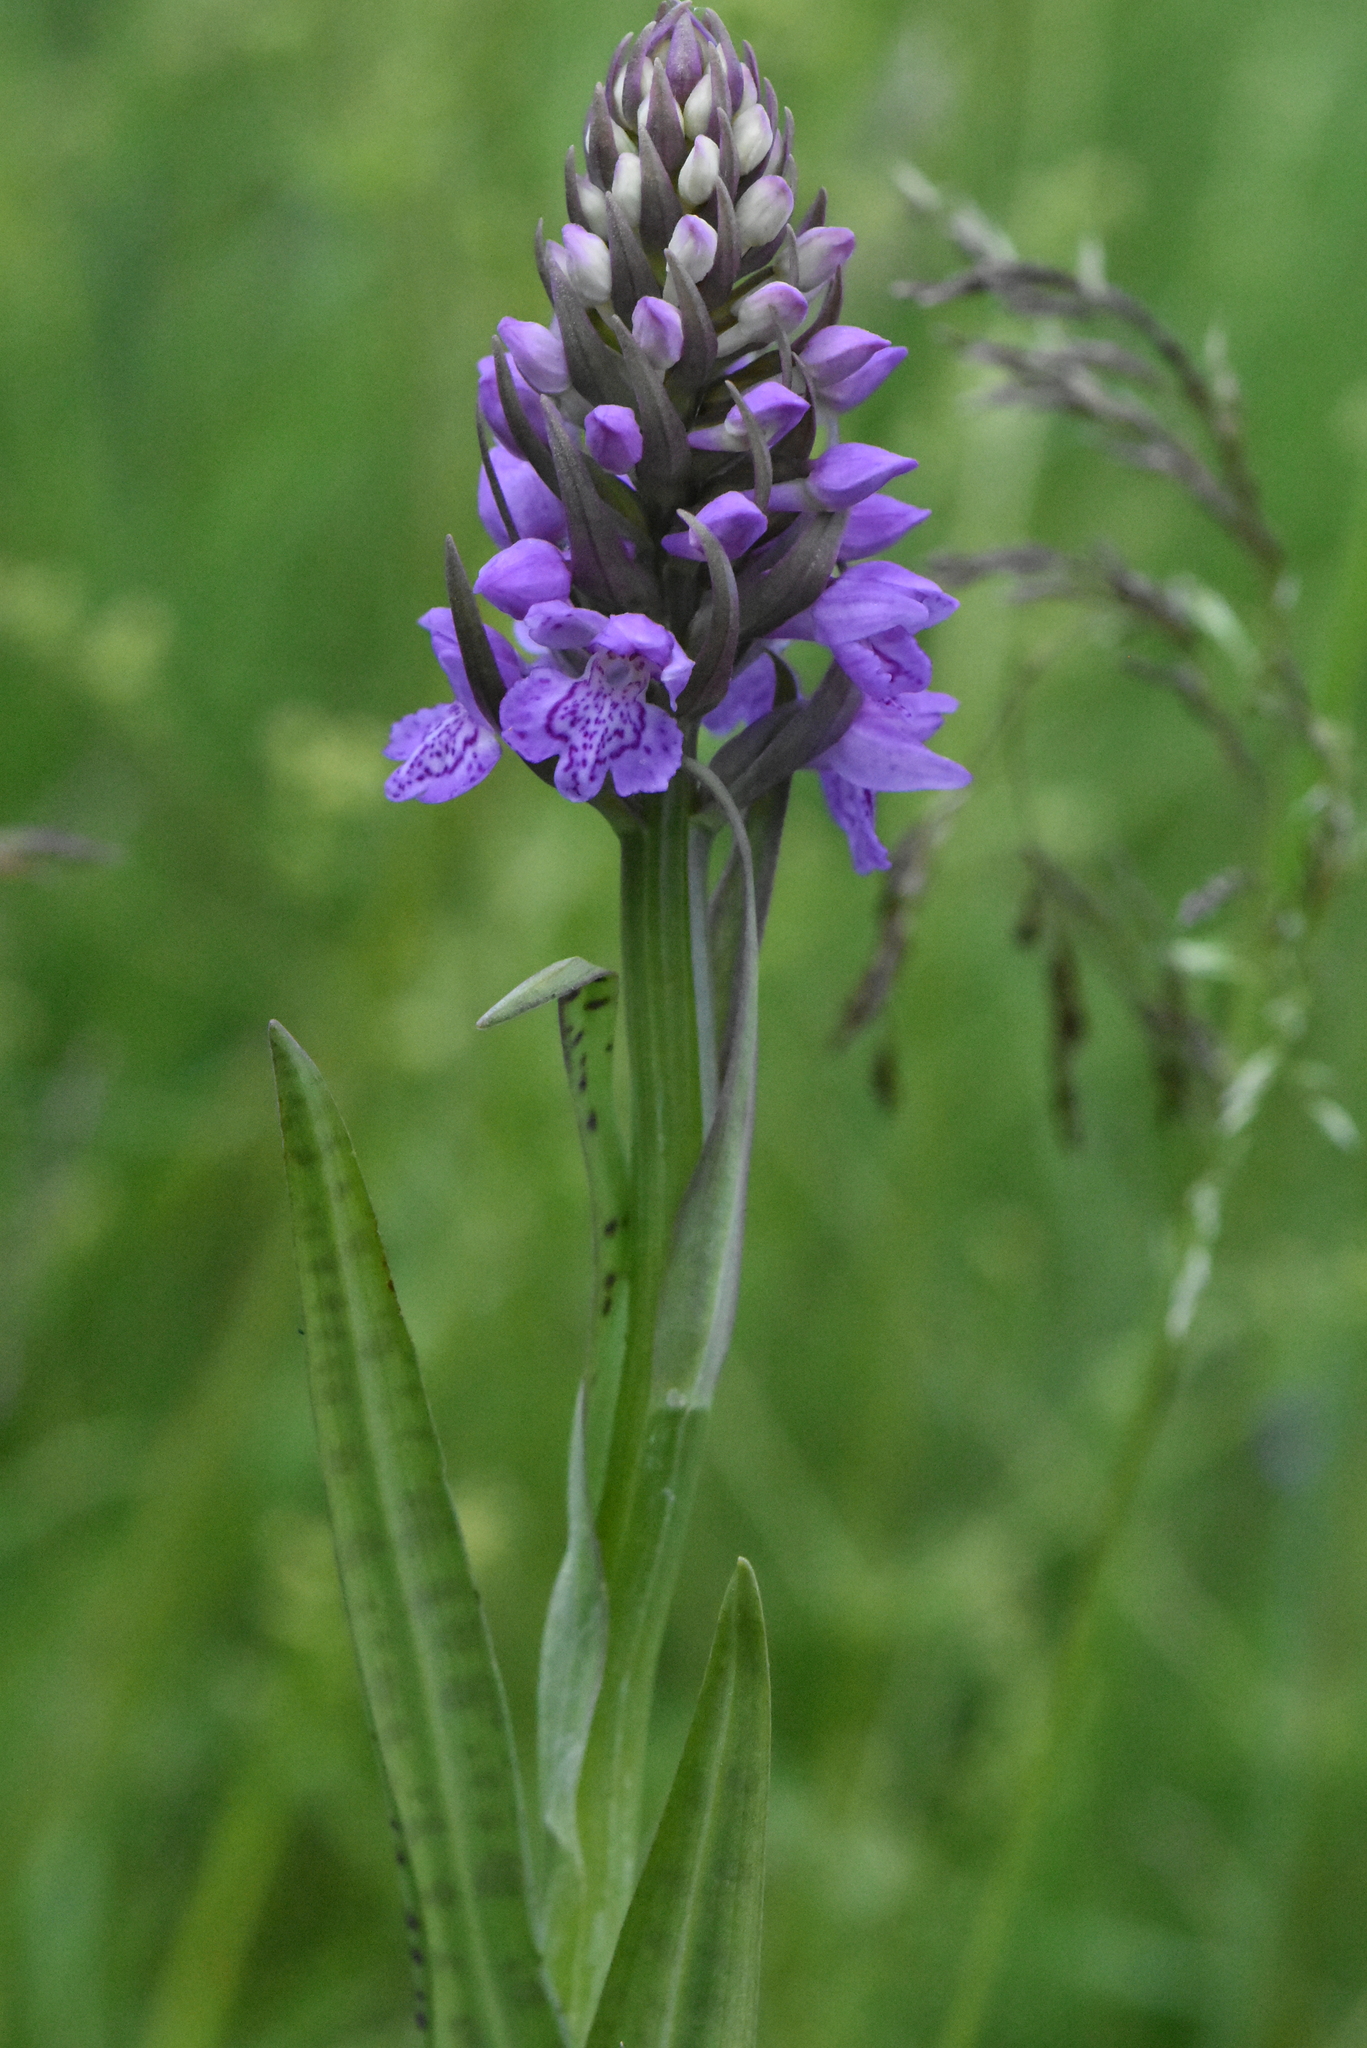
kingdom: Plantae
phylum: Tracheophyta
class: Liliopsida
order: Asparagales
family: Orchidaceae
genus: Dactylorhiza
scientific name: Dactylorhiza majalis
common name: Marsh orchid
